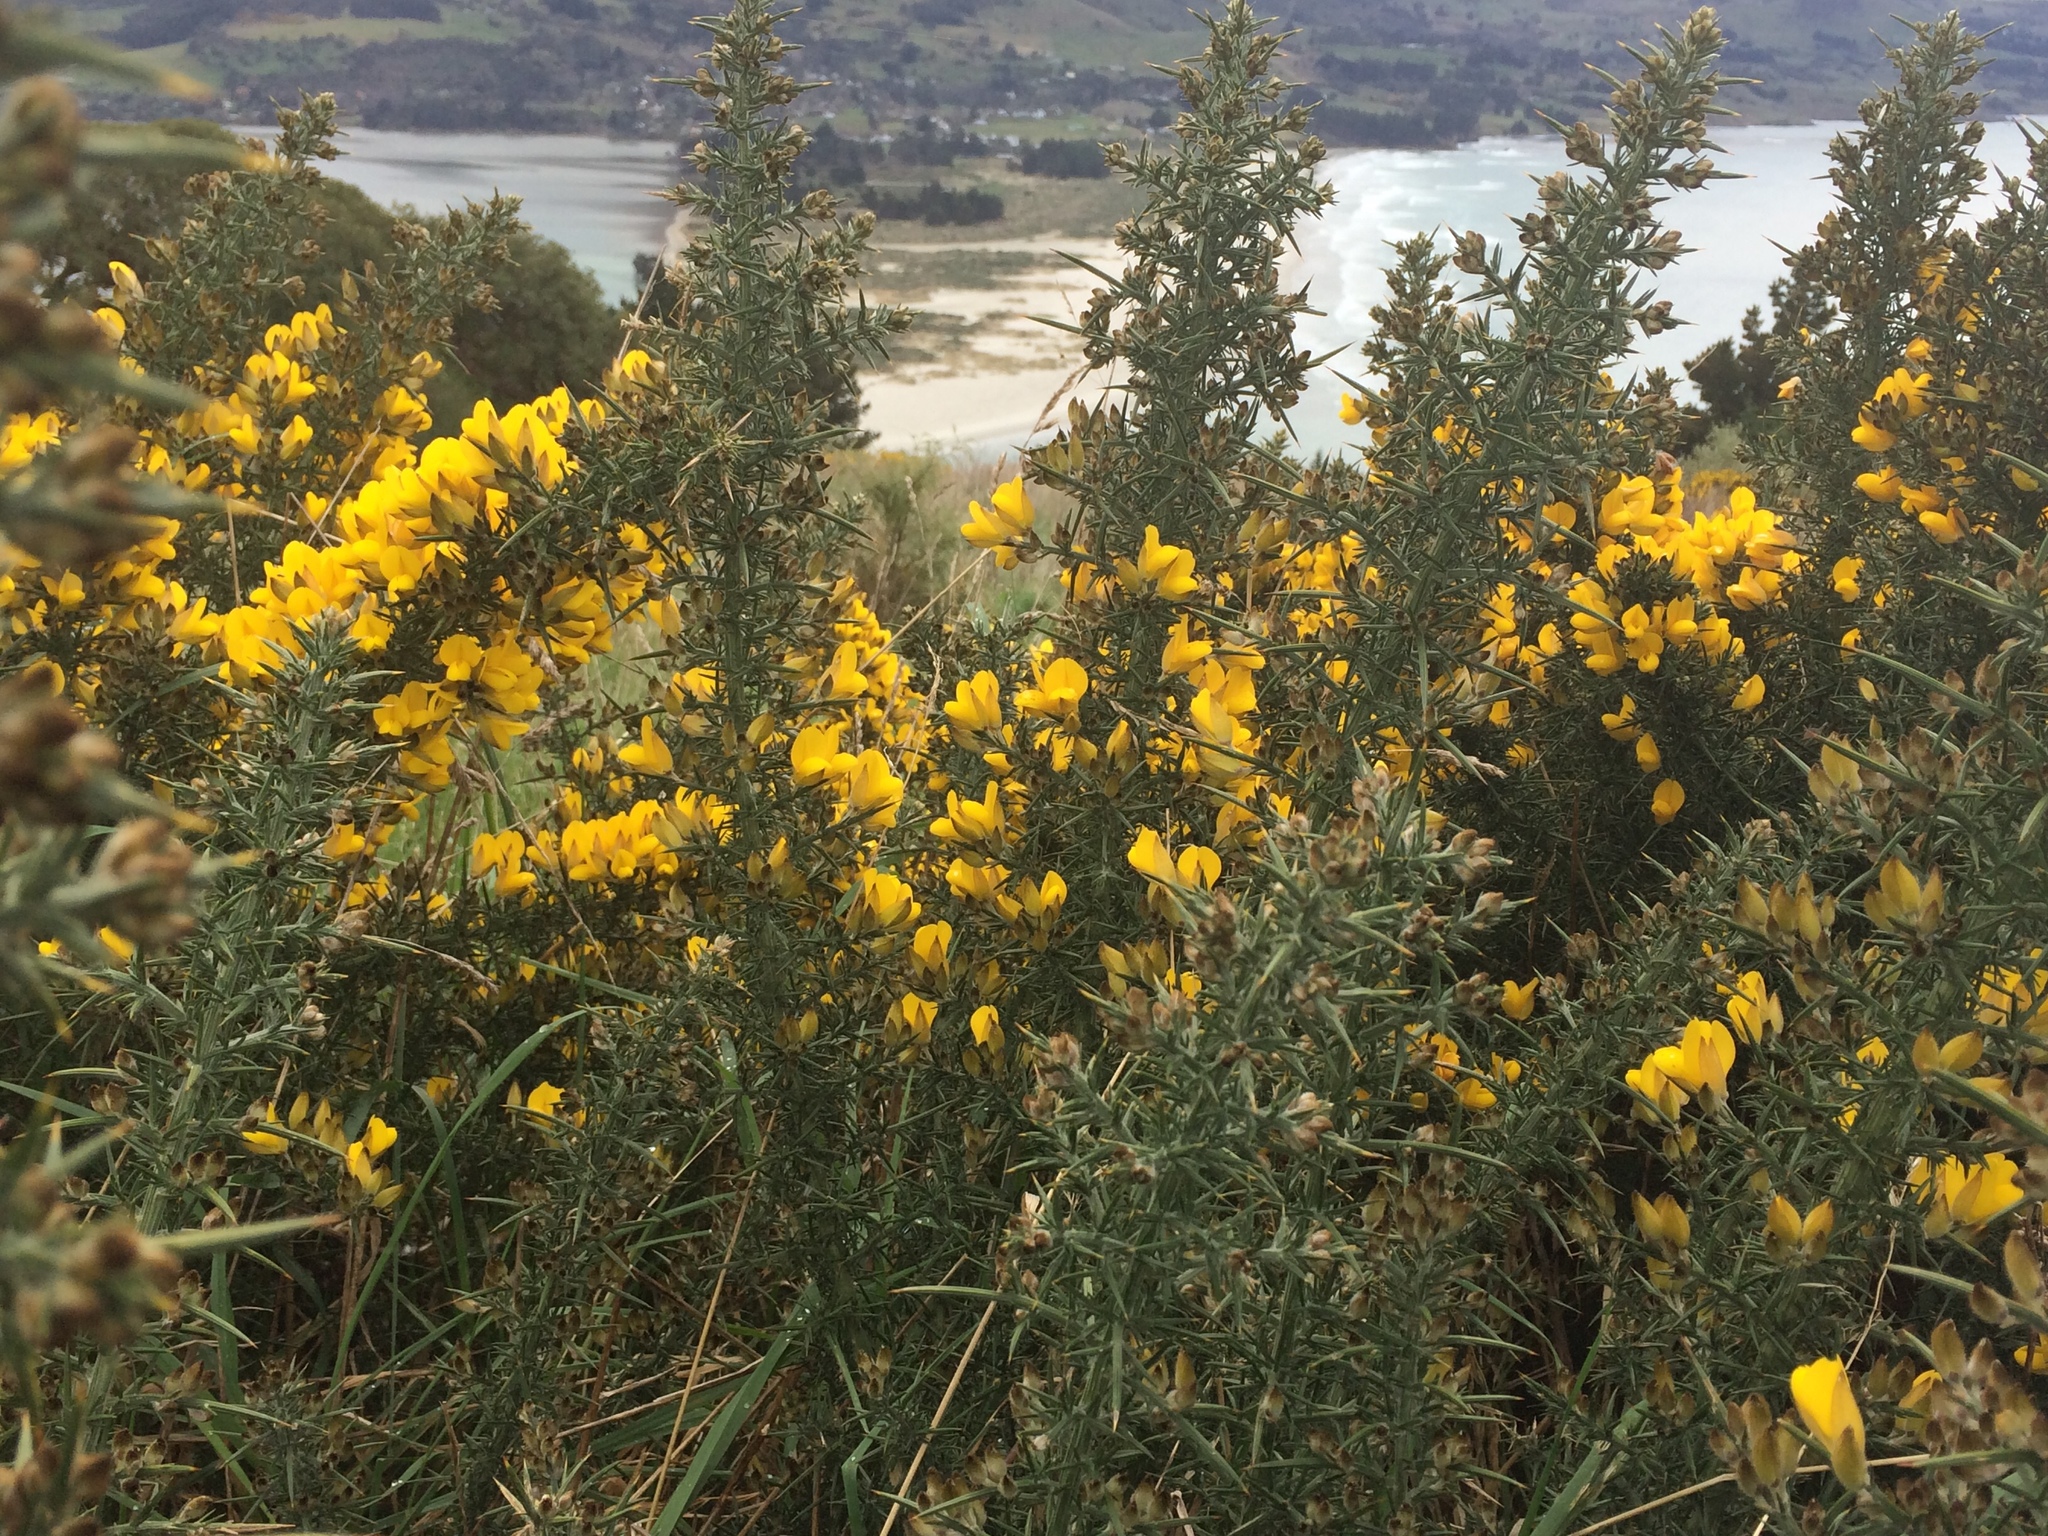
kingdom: Plantae
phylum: Tracheophyta
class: Magnoliopsida
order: Fabales
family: Fabaceae
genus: Ulex
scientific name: Ulex europaeus
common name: Common gorse
